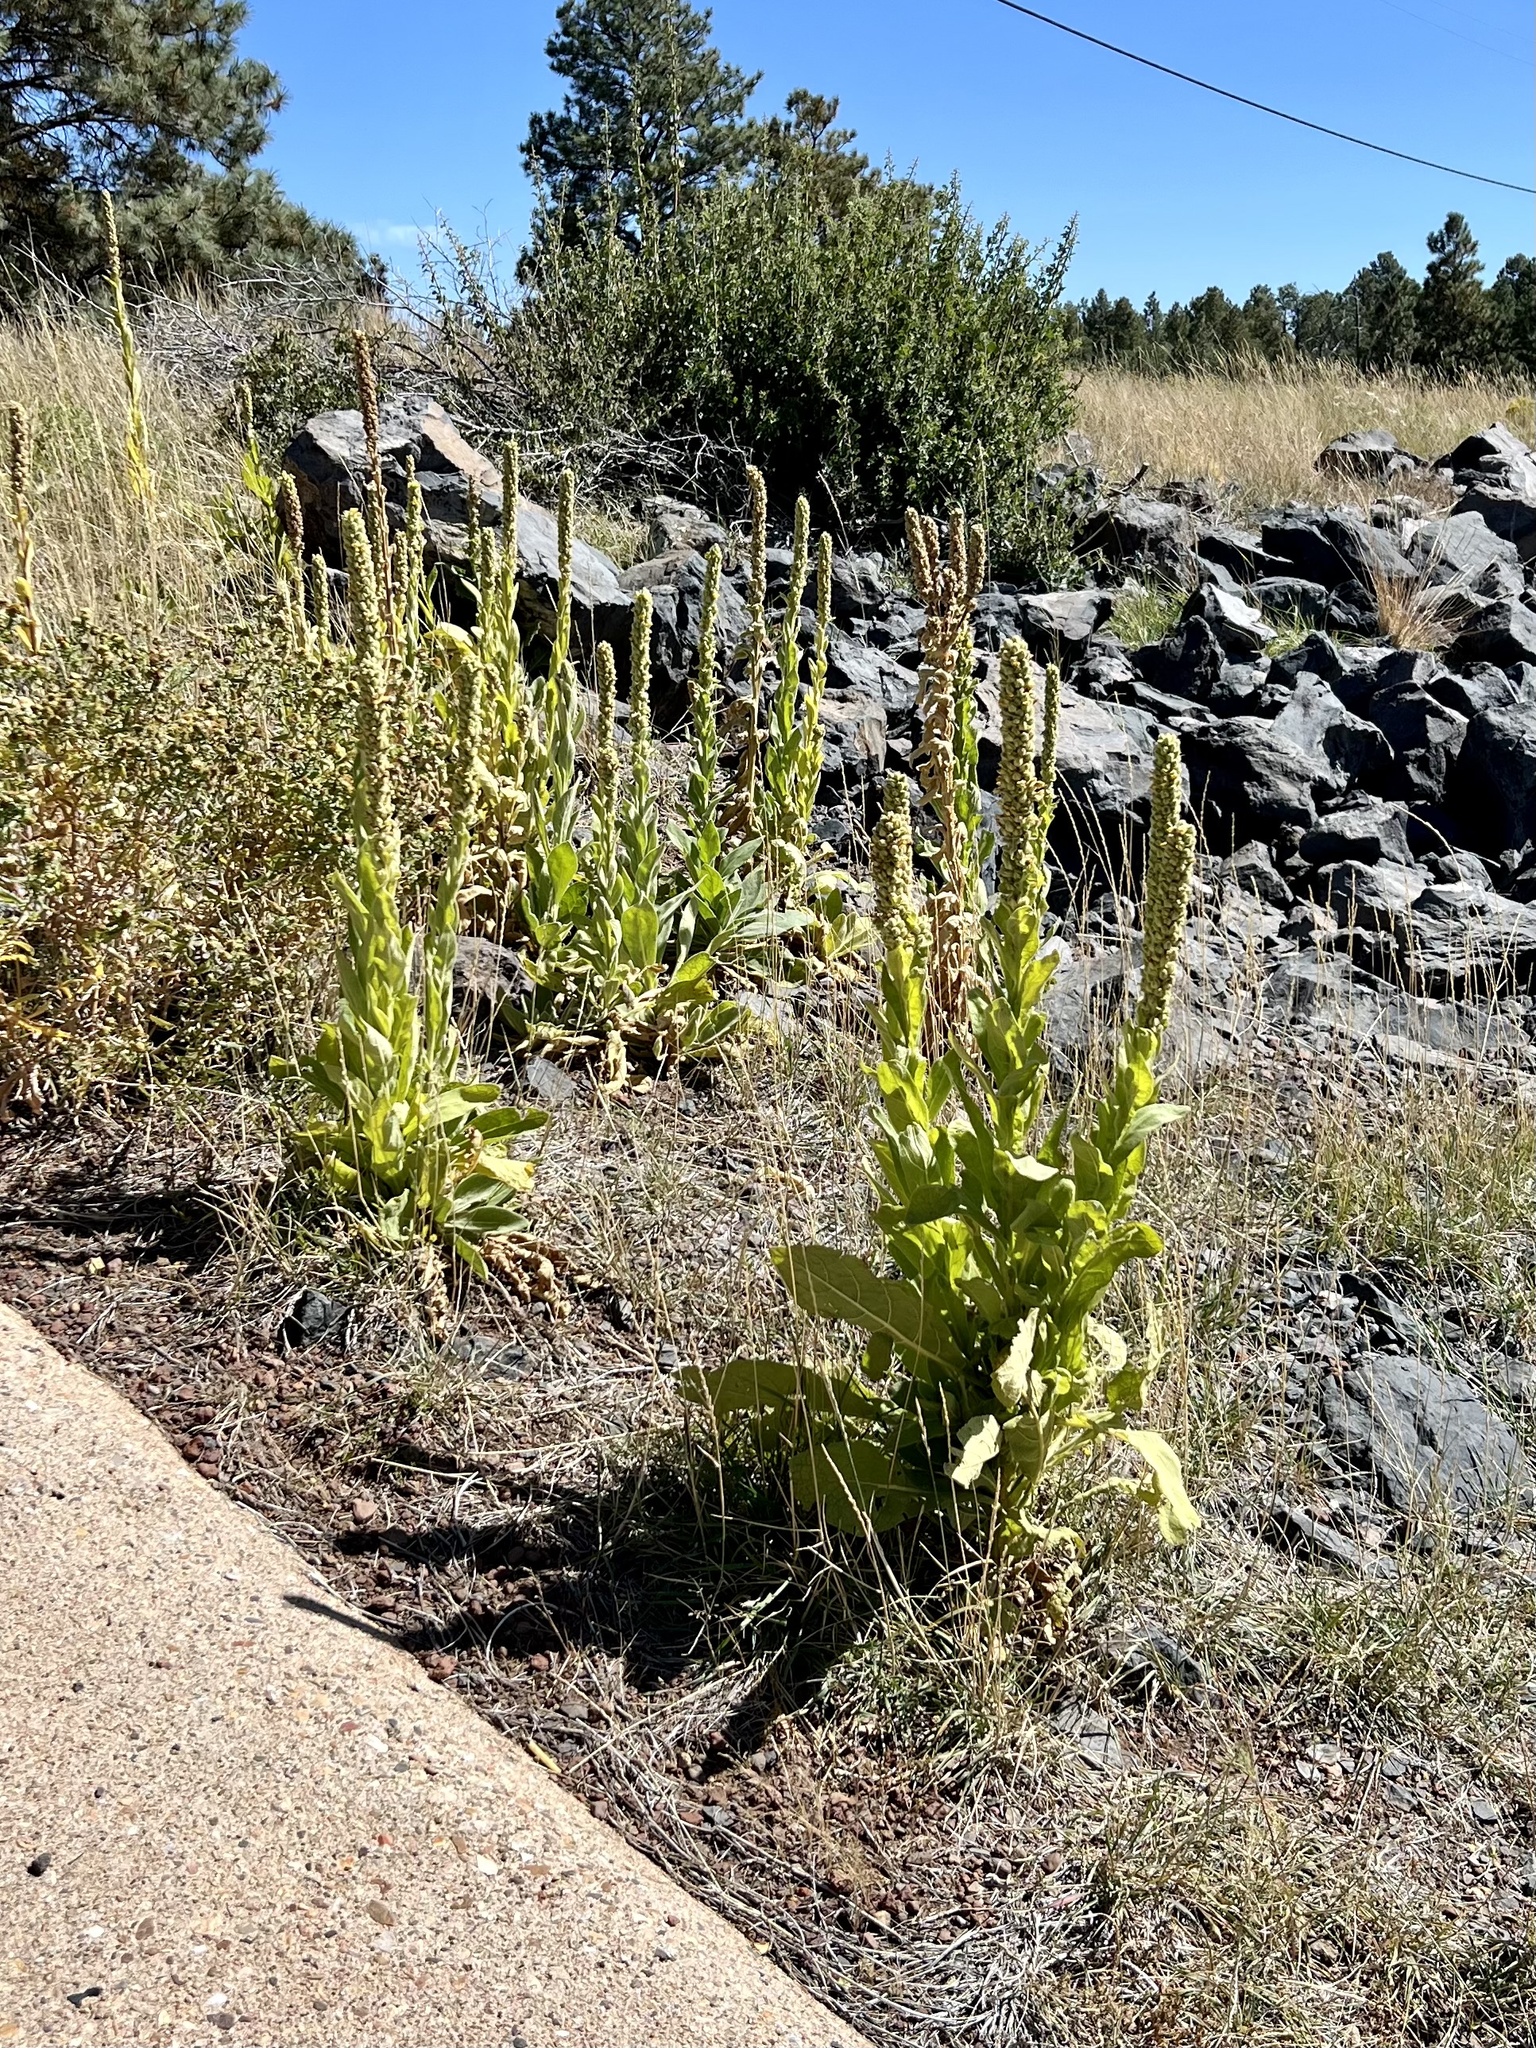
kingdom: Plantae
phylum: Tracheophyta
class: Magnoliopsida
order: Lamiales
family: Scrophulariaceae
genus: Verbascum
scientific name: Verbascum thapsus
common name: Common mullein
